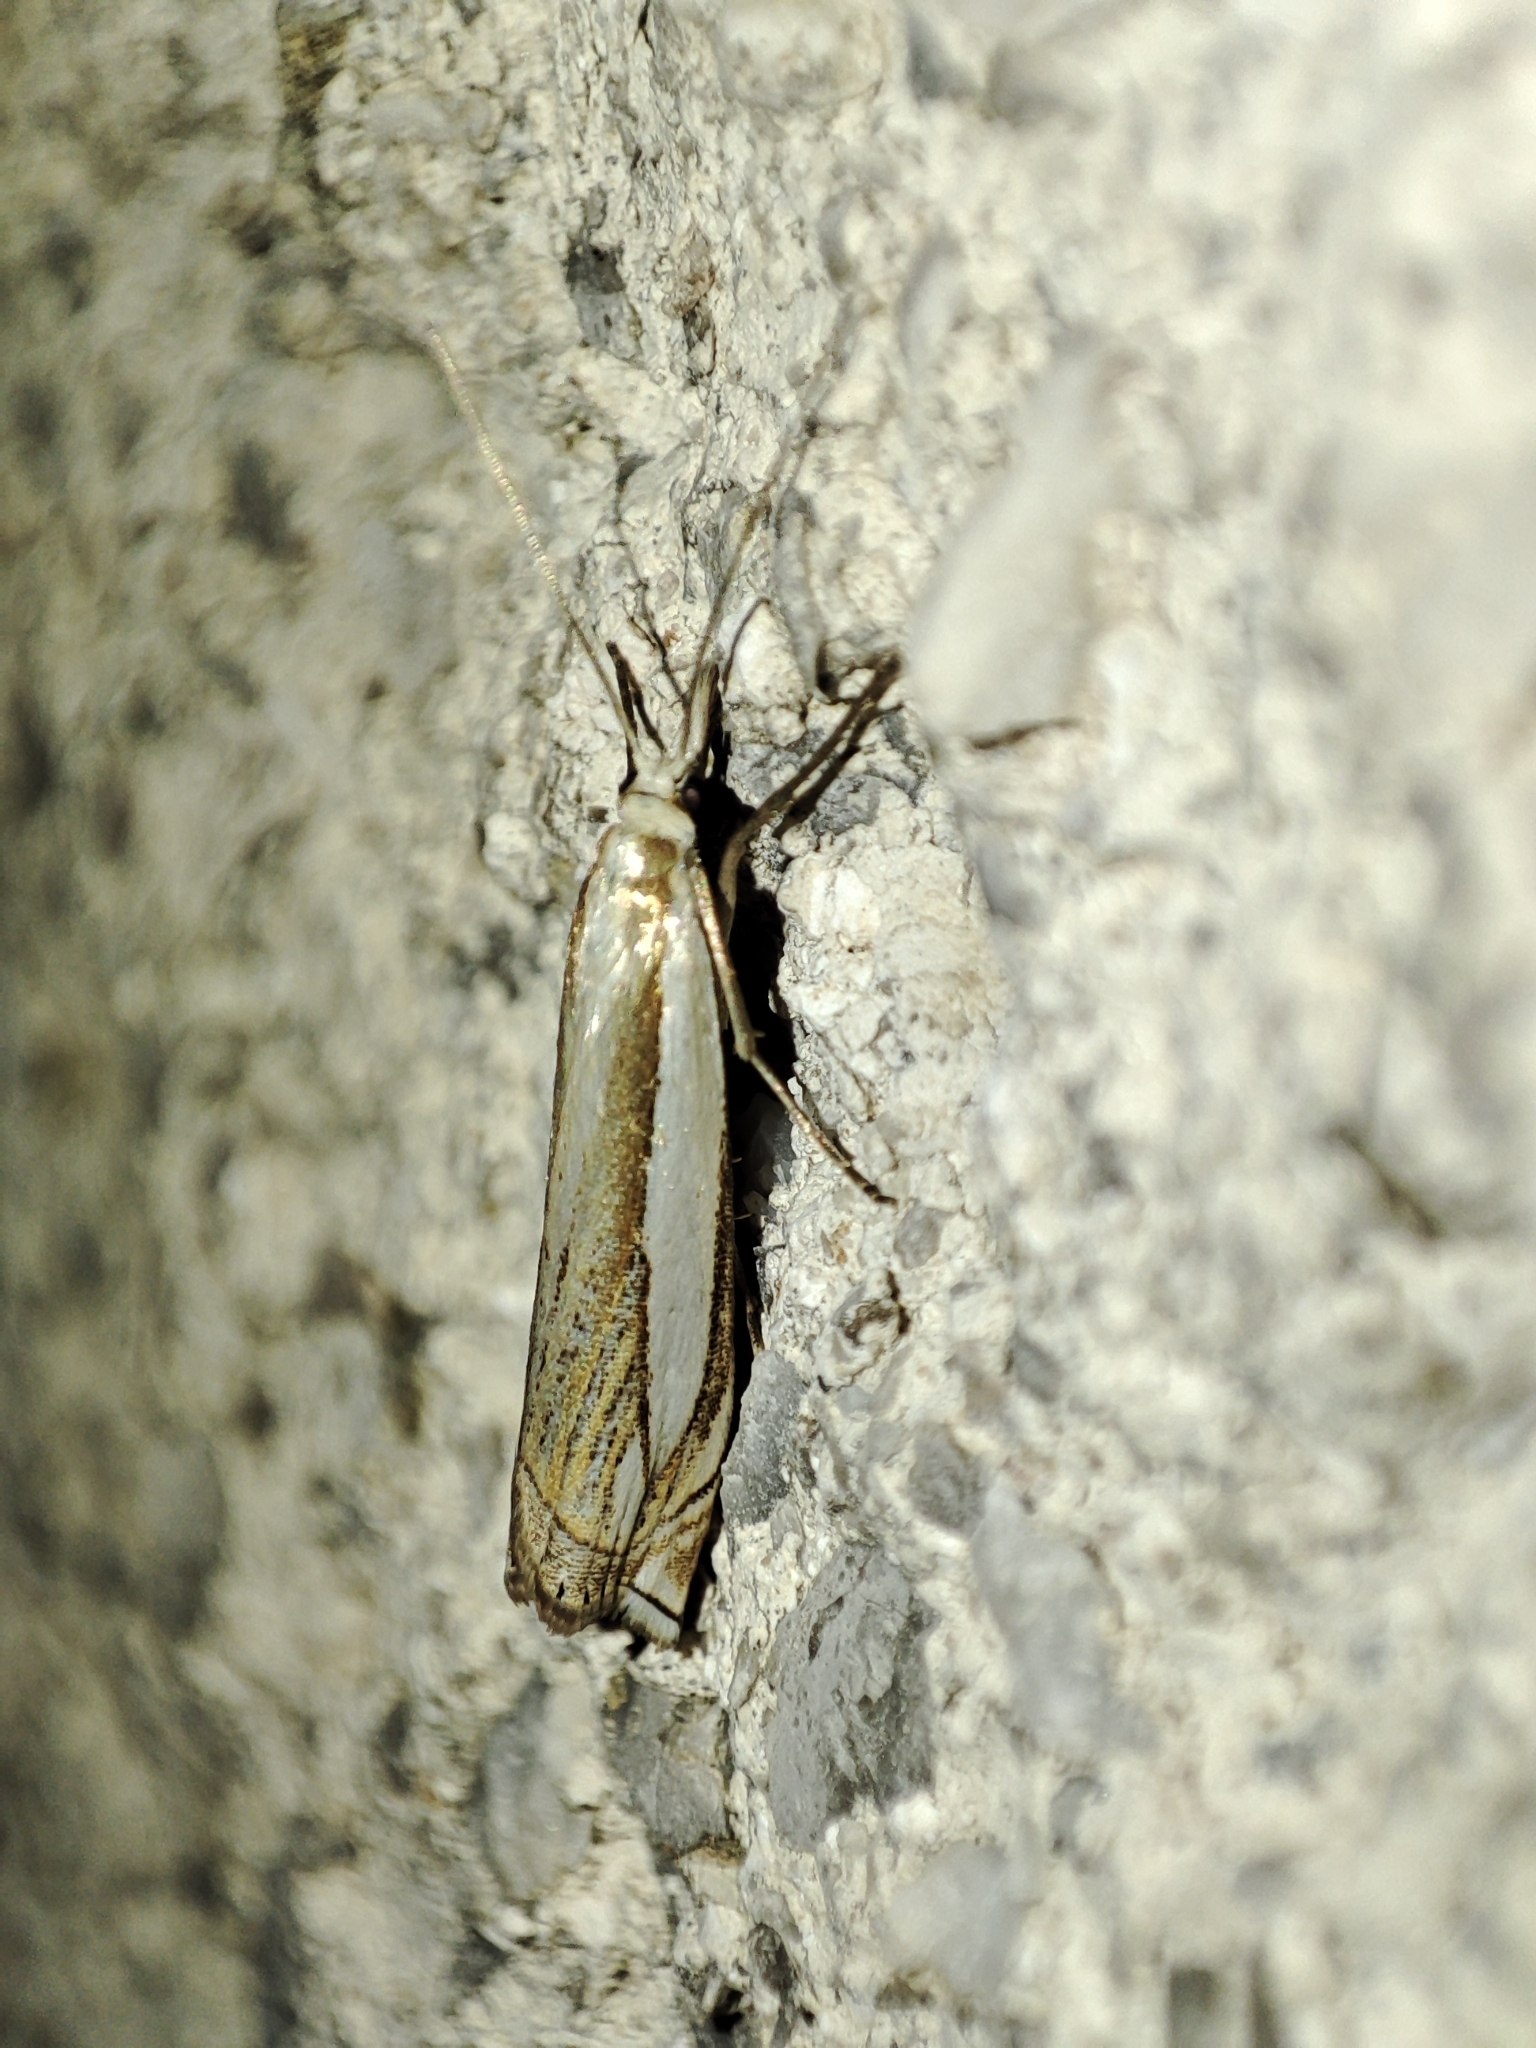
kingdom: Animalia
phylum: Arthropoda
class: Insecta
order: Lepidoptera
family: Crambidae
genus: Crambus
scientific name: Crambus pascuella
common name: Inlaid grass-veneer
